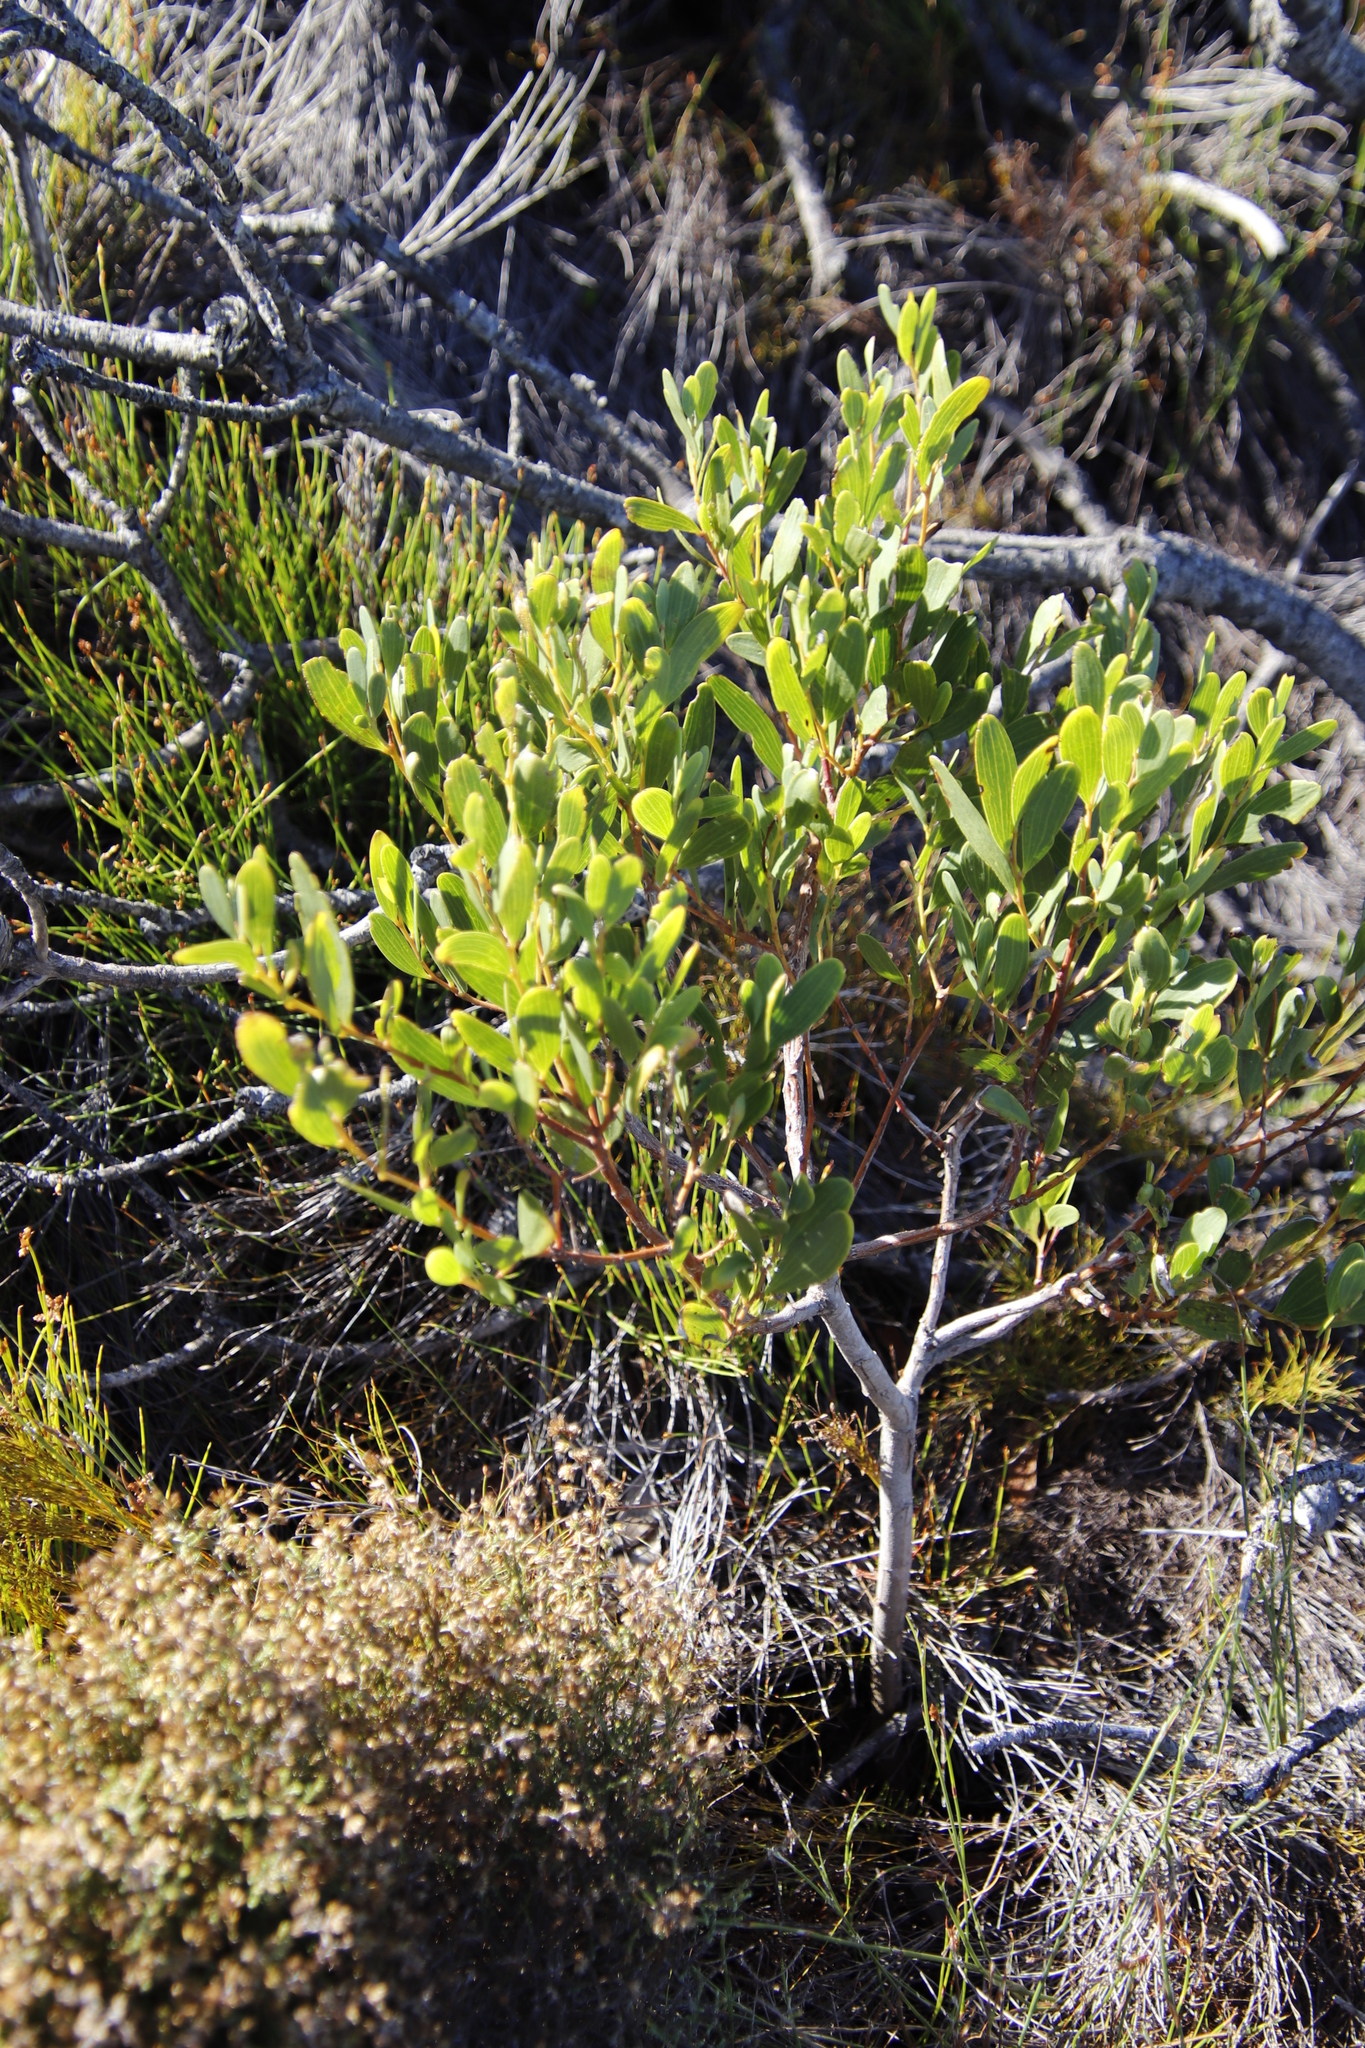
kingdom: Plantae
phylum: Tracheophyta
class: Magnoliopsida
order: Fabales
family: Fabaceae
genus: Acacia
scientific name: Acacia cyclops
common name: Coastal wattle
